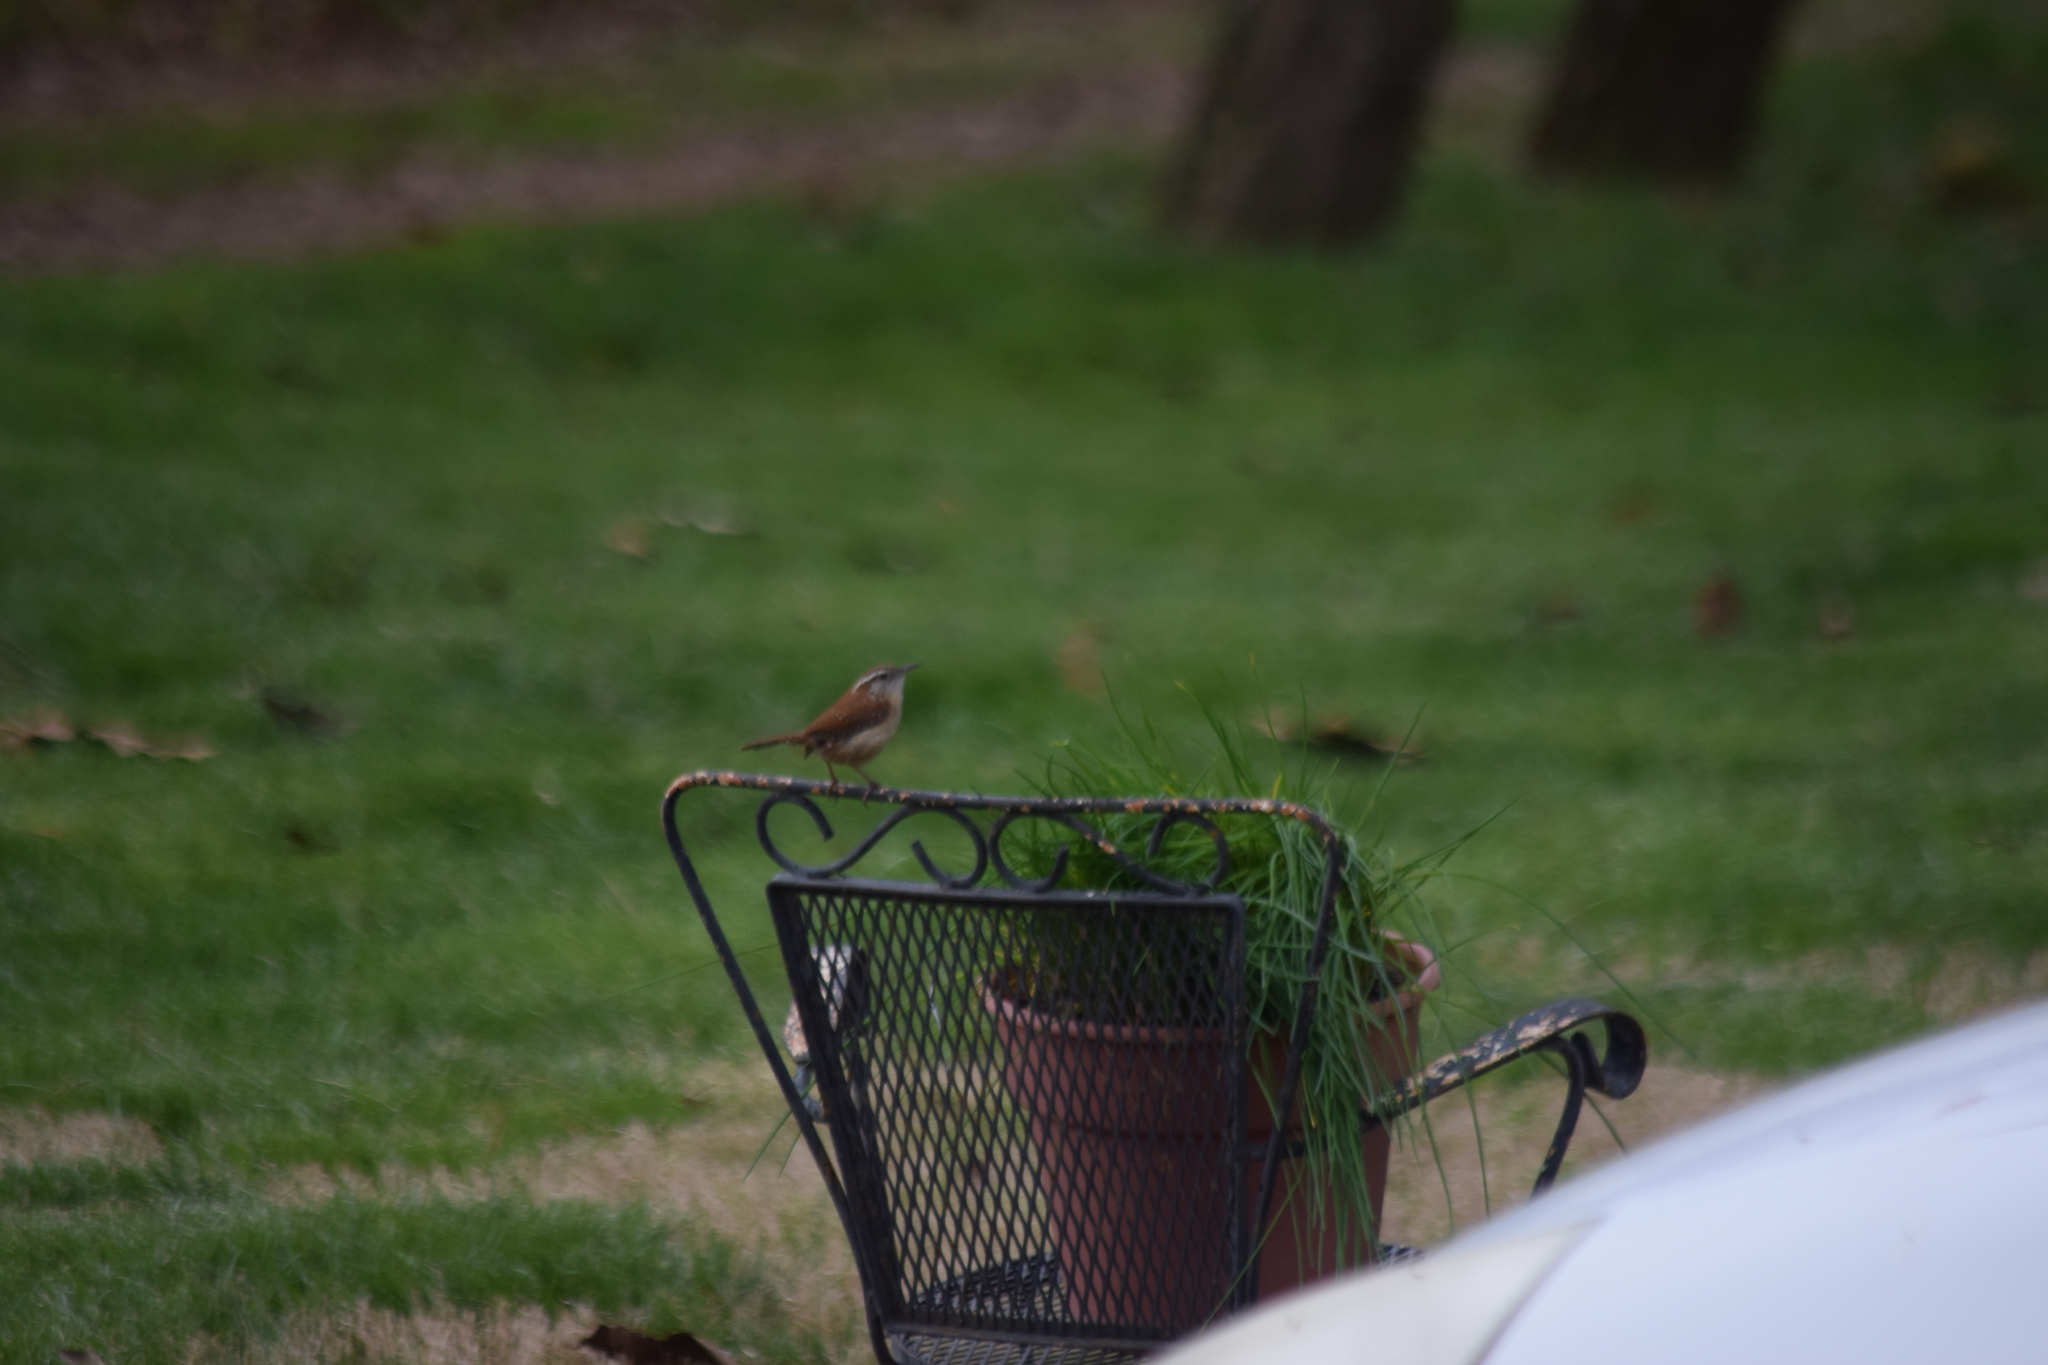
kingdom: Animalia
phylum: Chordata
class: Aves
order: Passeriformes
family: Troglodytidae
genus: Thryothorus
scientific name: Thryothorus ludovicianus
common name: Carolina wren
